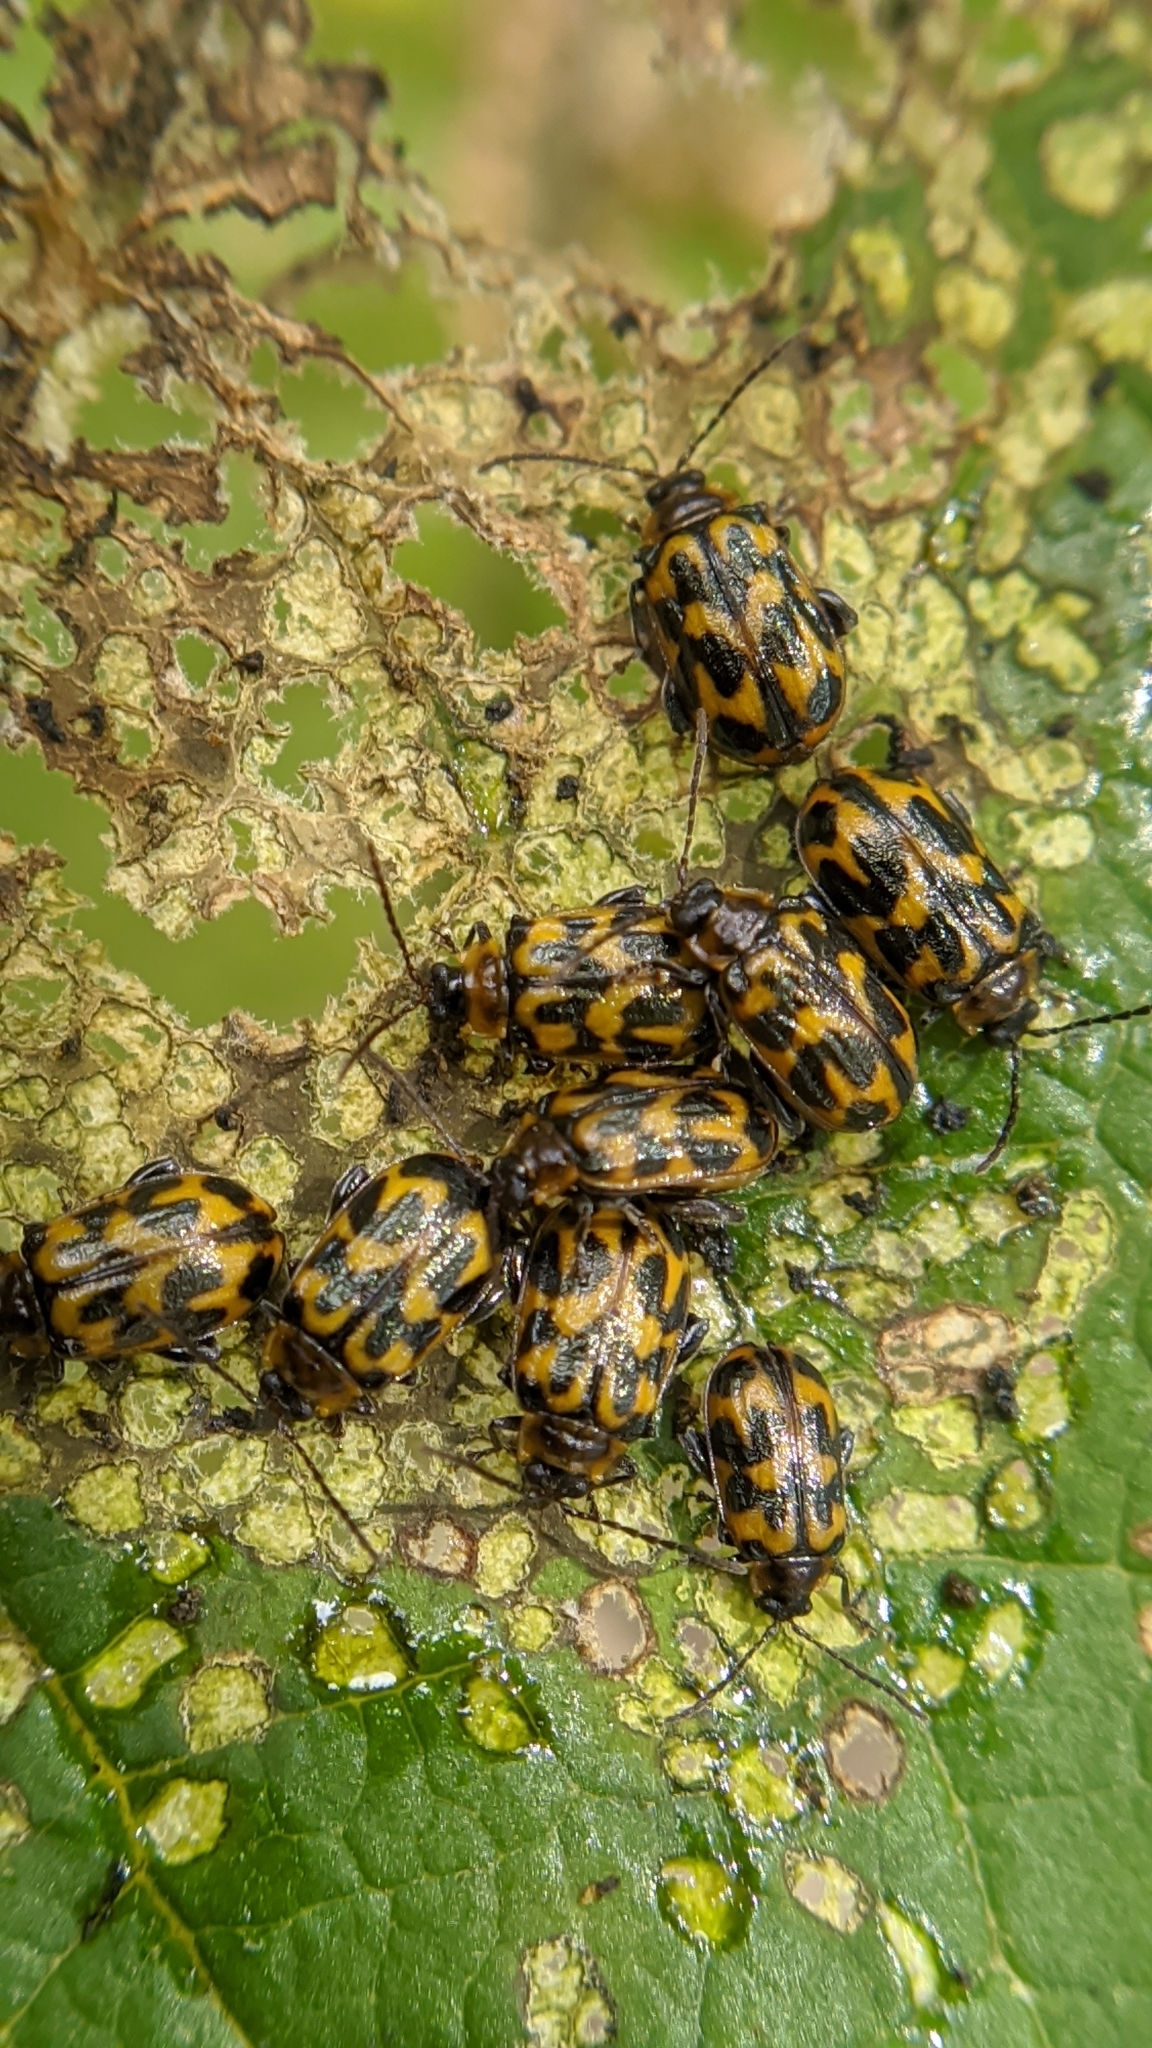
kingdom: Animalia
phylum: Arthropoda
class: Insecta
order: Coleoptera
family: Chrysomelidae
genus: Capraita
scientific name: Capraita
